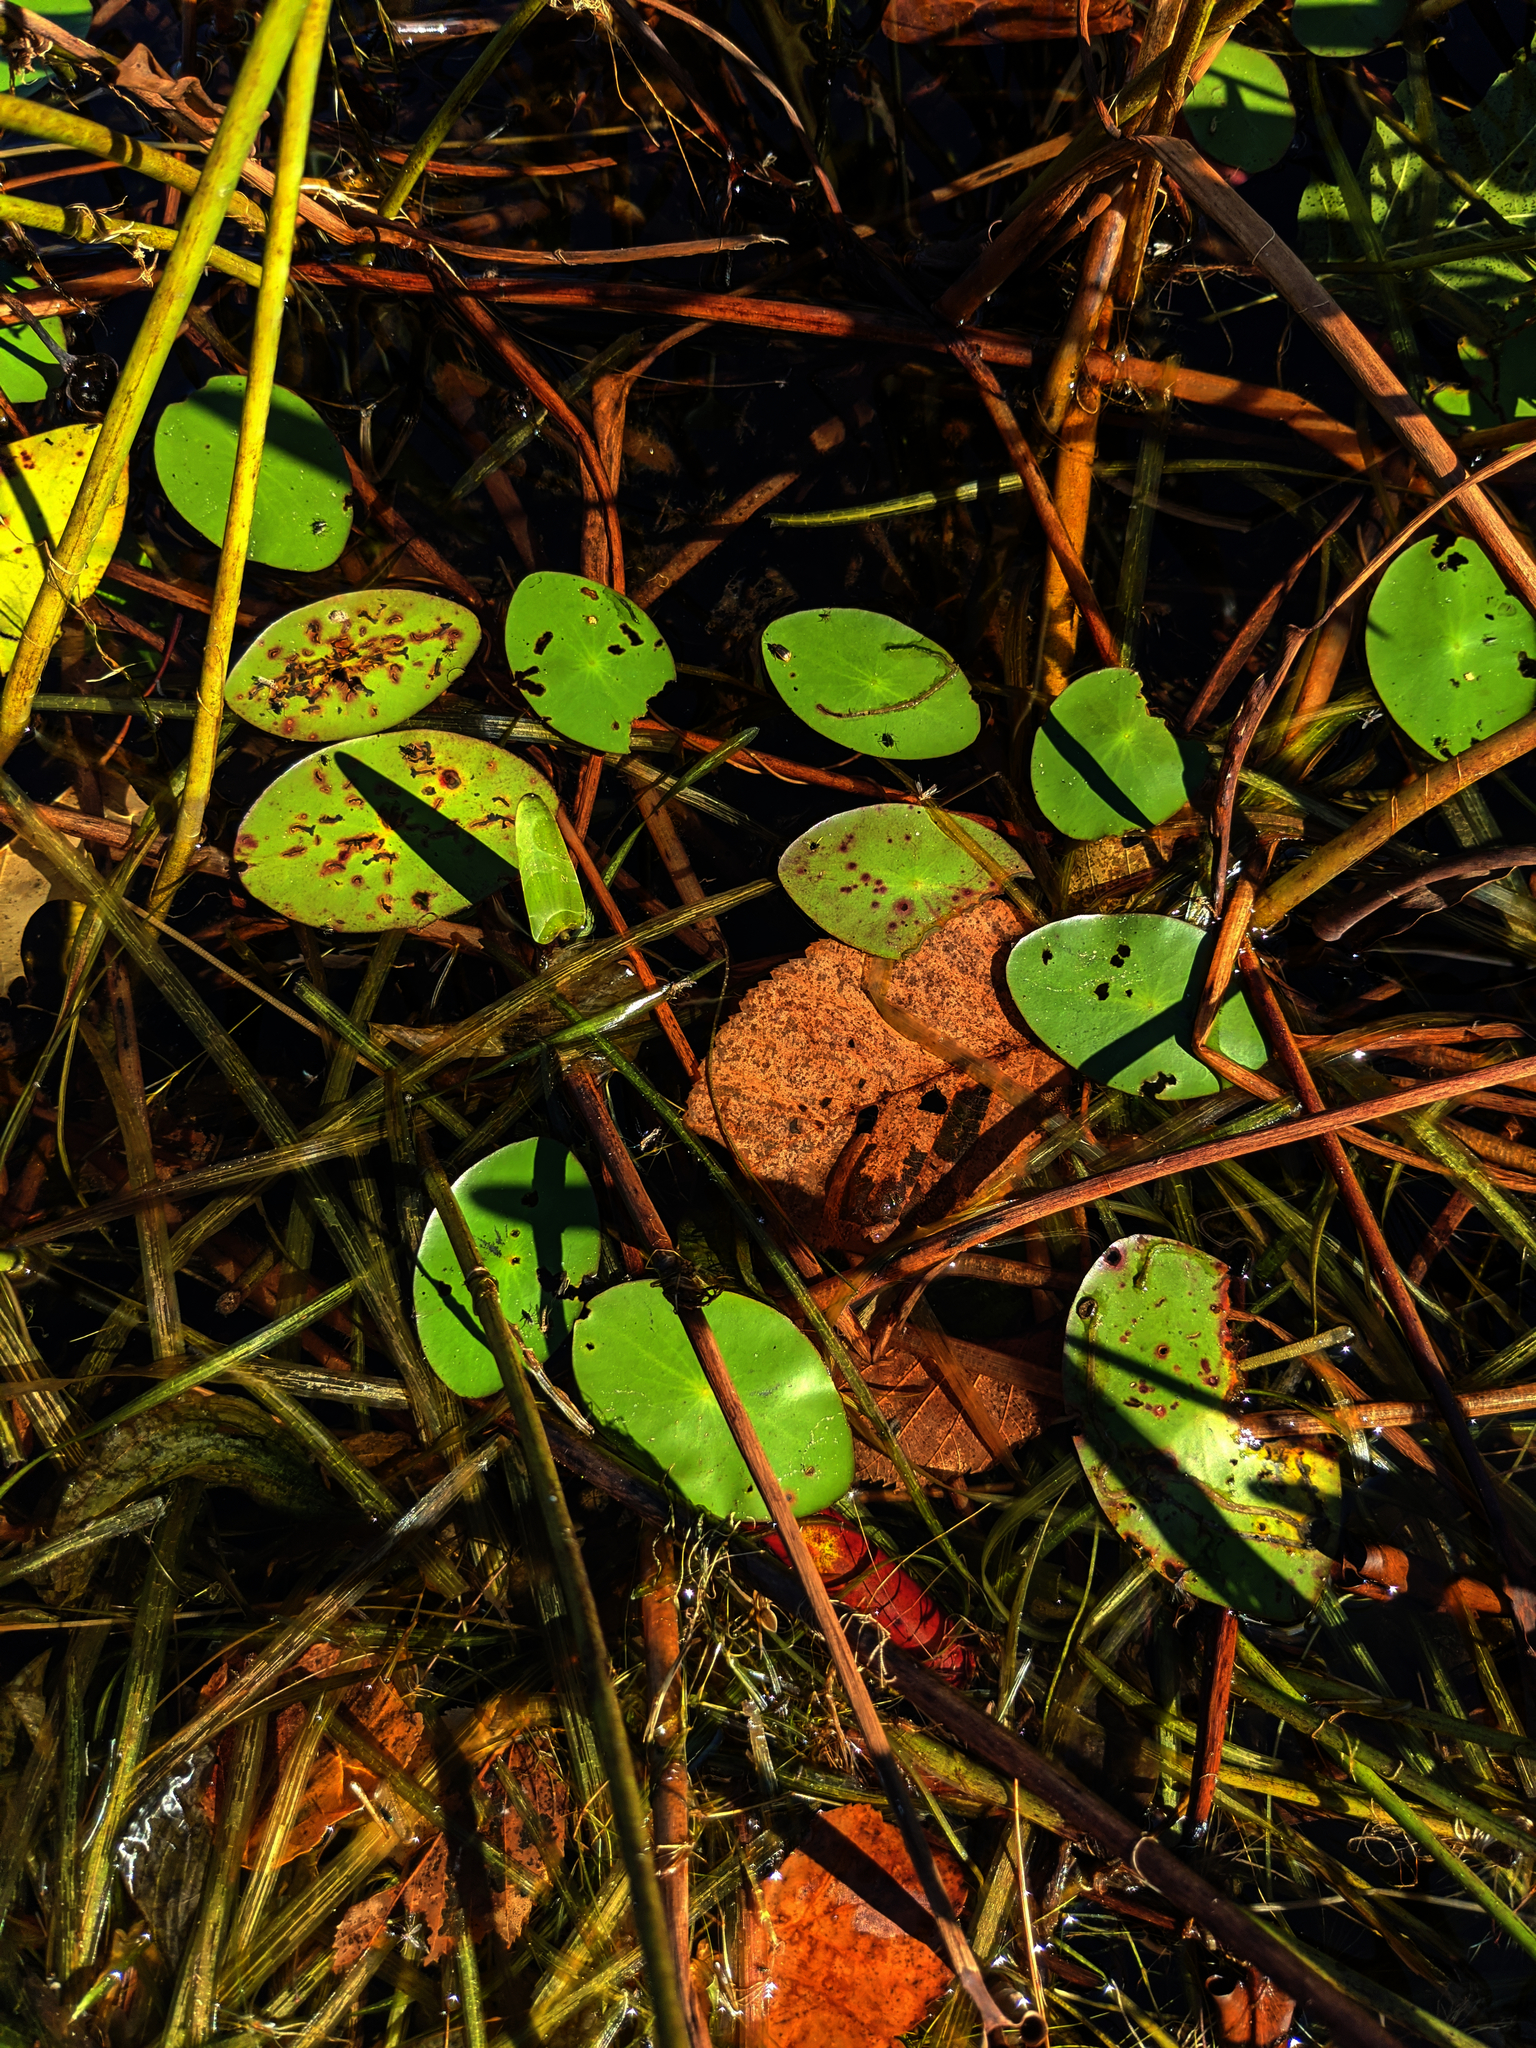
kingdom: Plantae
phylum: Tracheophyta
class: Magnoliopsida
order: Nymphaeales
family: Cabombaceae
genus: Brasenia
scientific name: Brasenia schreberi
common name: Water-shield
